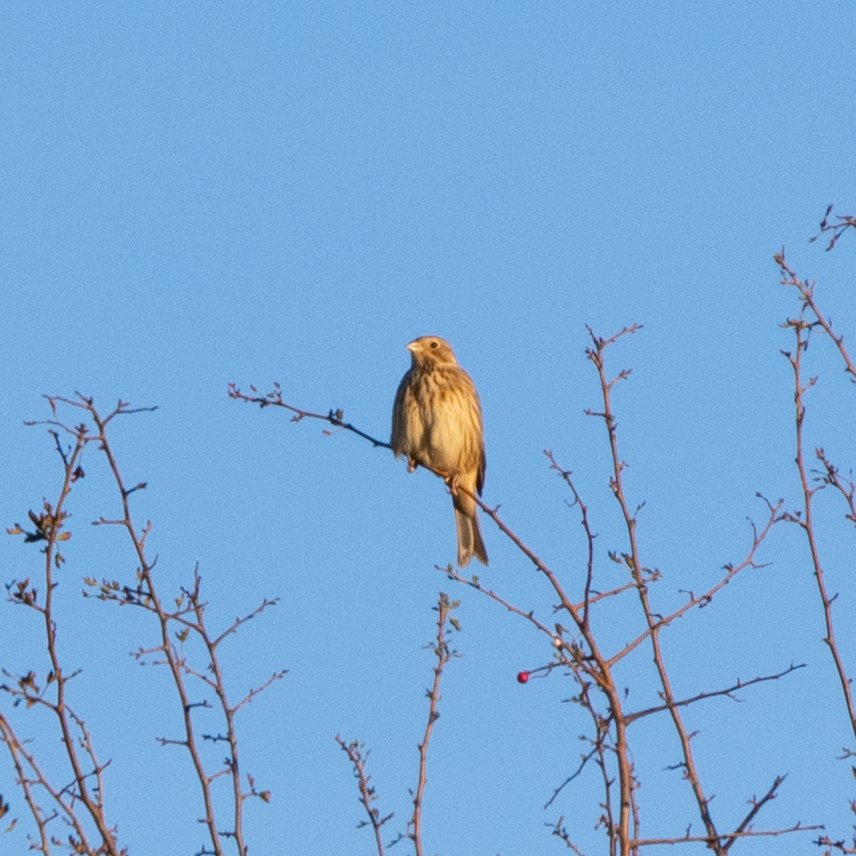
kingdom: Animalia
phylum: Chordata
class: Aves
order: Passeriformes
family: Emberizidae
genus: Emberiza
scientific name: Emberiza calandra
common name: Corn bunting
